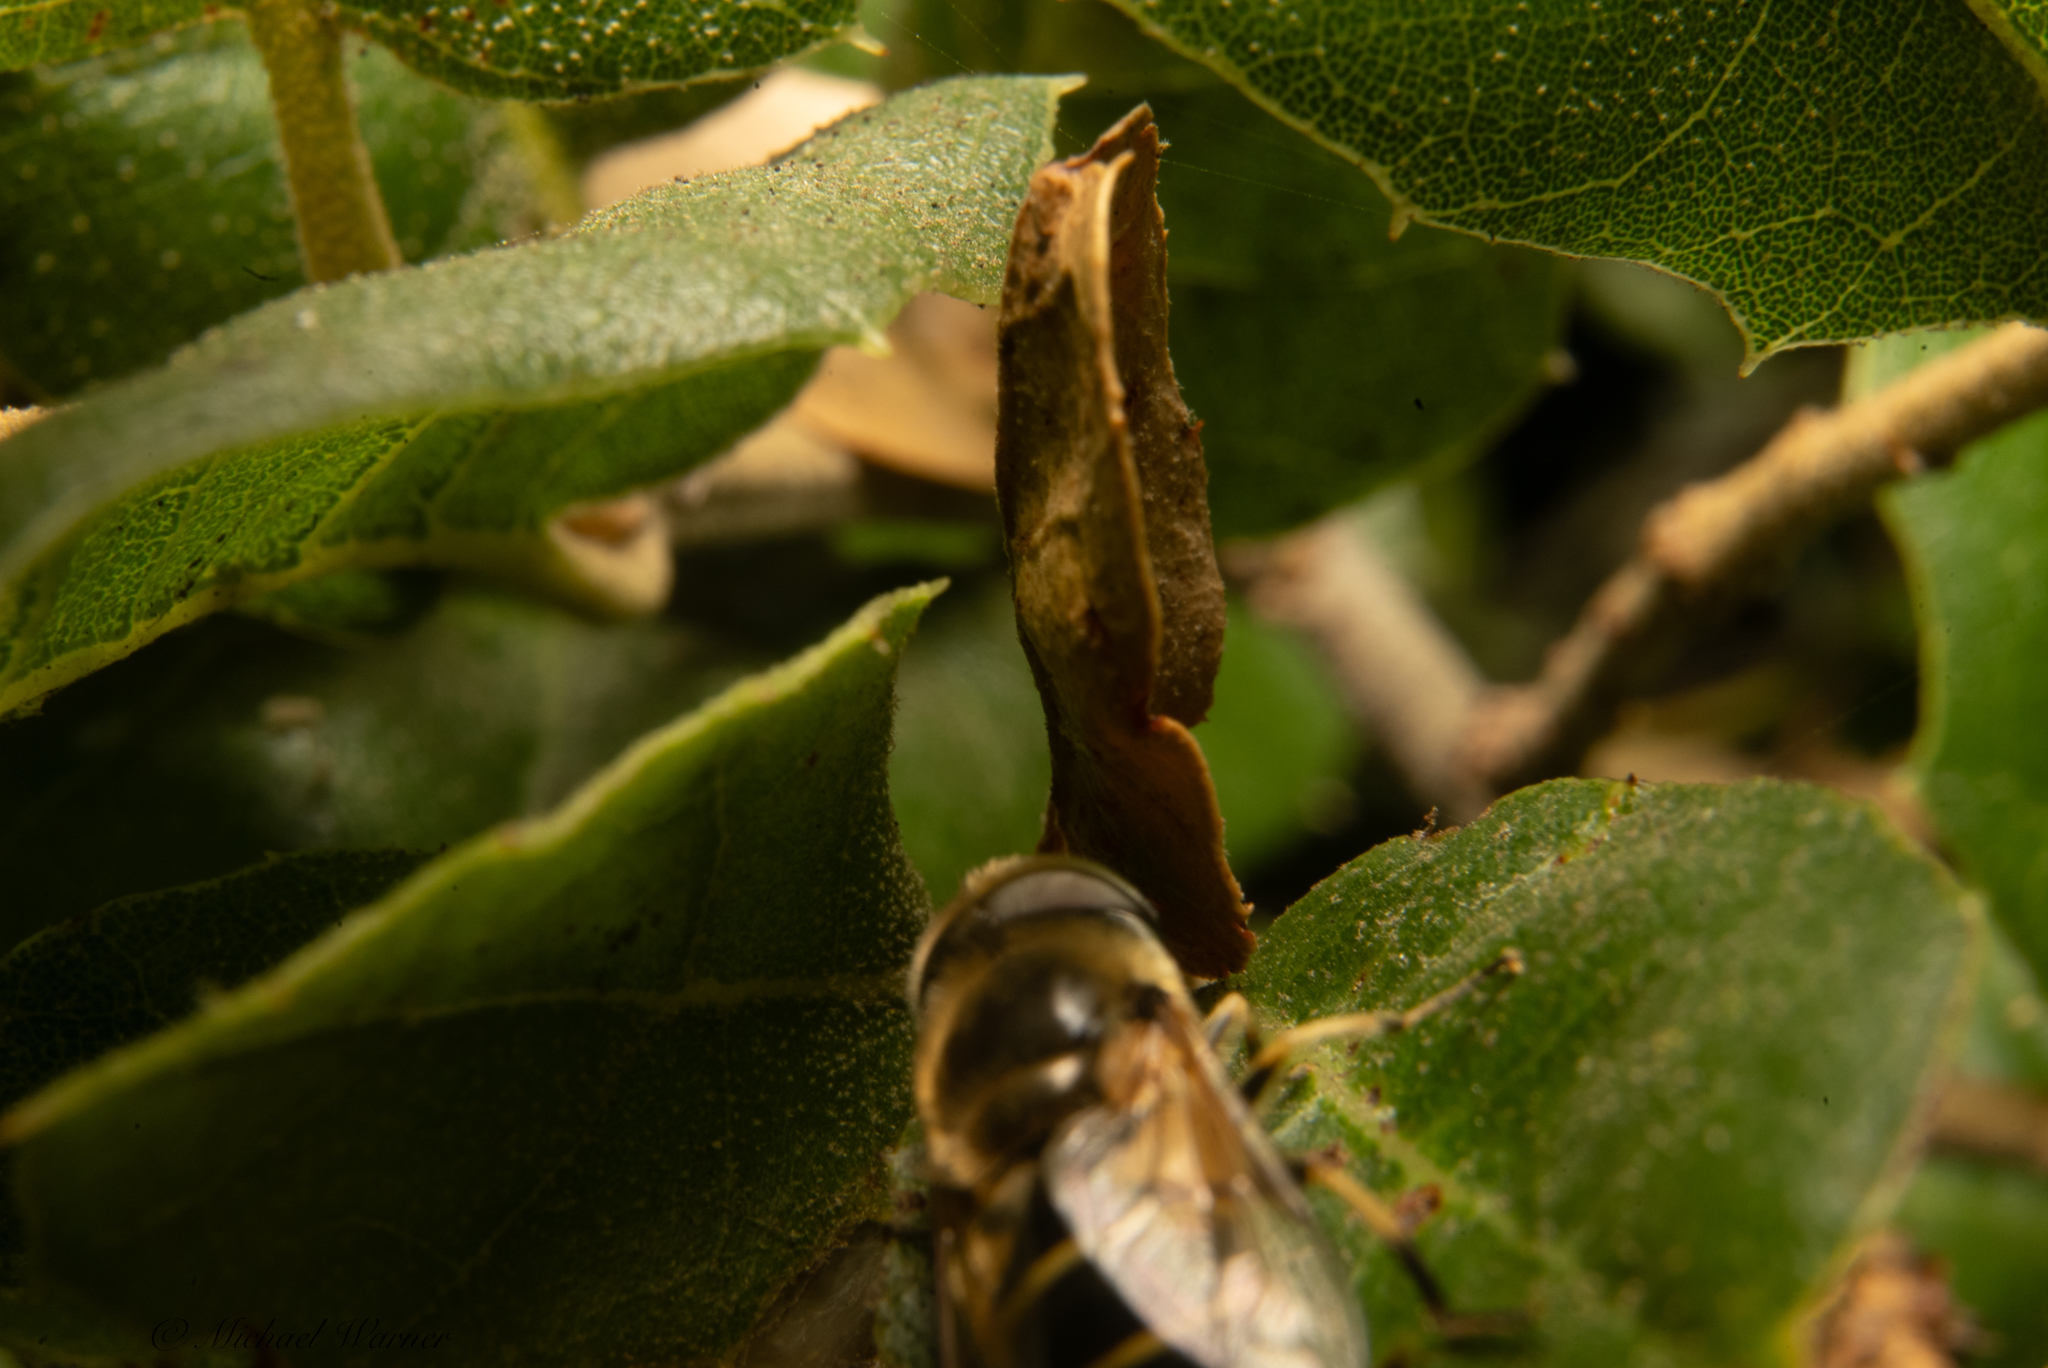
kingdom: Animalia
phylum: Arthropoda
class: Insecta
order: Diptera
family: Syrphidae
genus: Eristalis
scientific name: Eristalis hirta
